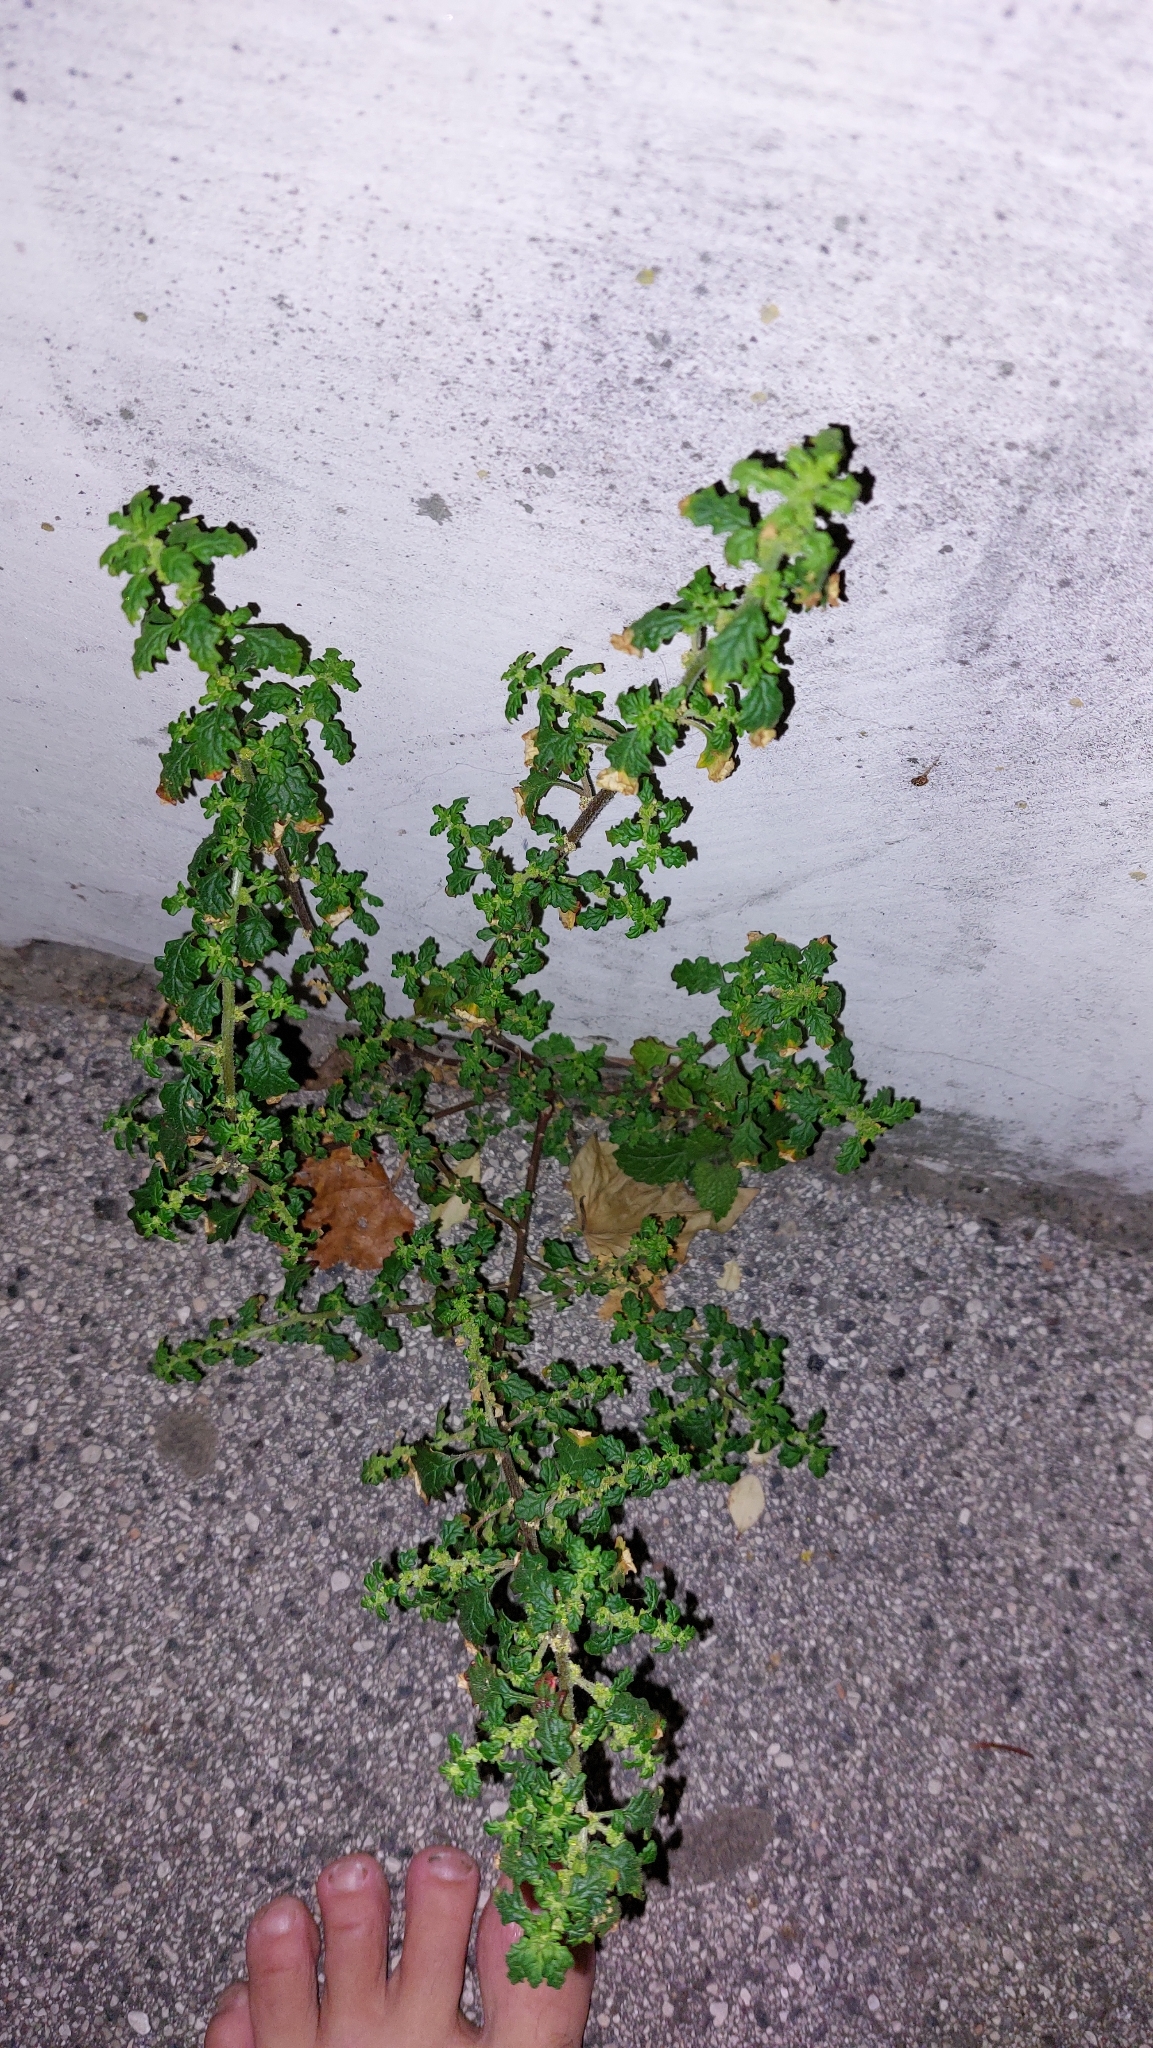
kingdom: Plantae
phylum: Tracheophyta
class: Magnoliopsida
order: Caryophyllales
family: Amaranthaceae
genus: Dysphania
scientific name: Dysphania pumilio
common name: Clammy goosefoot
